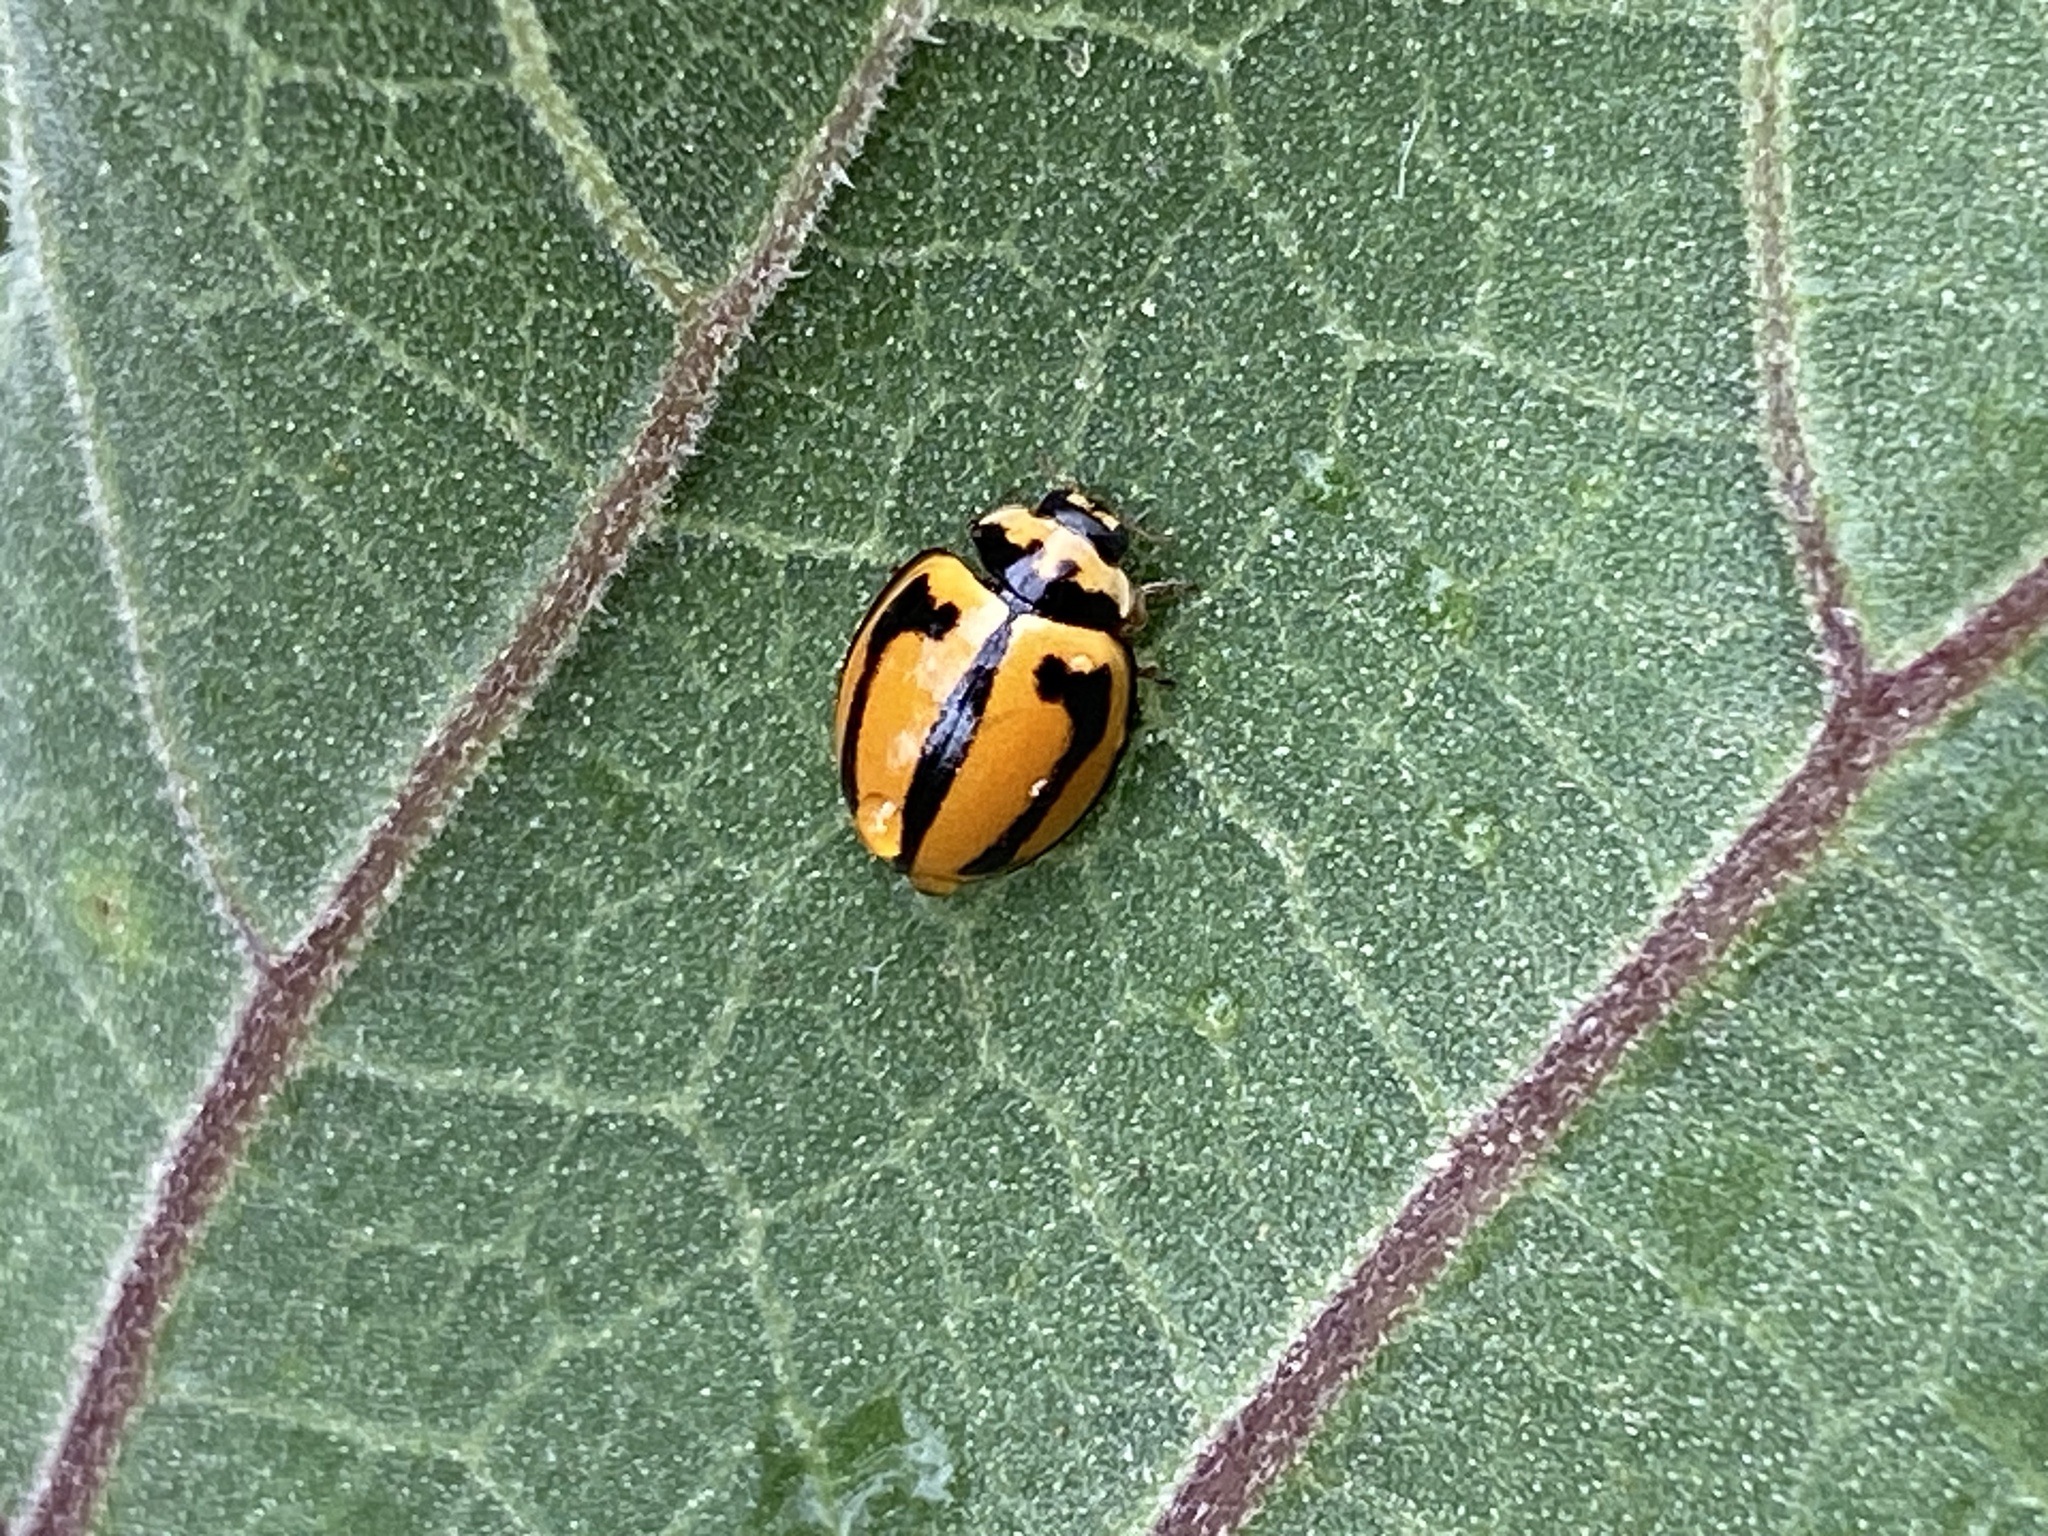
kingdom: Animalia
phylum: Arthropoda
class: Insecta
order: Coleoptera
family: Coccinellidae
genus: Micraspis
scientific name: Micraspis frenata
